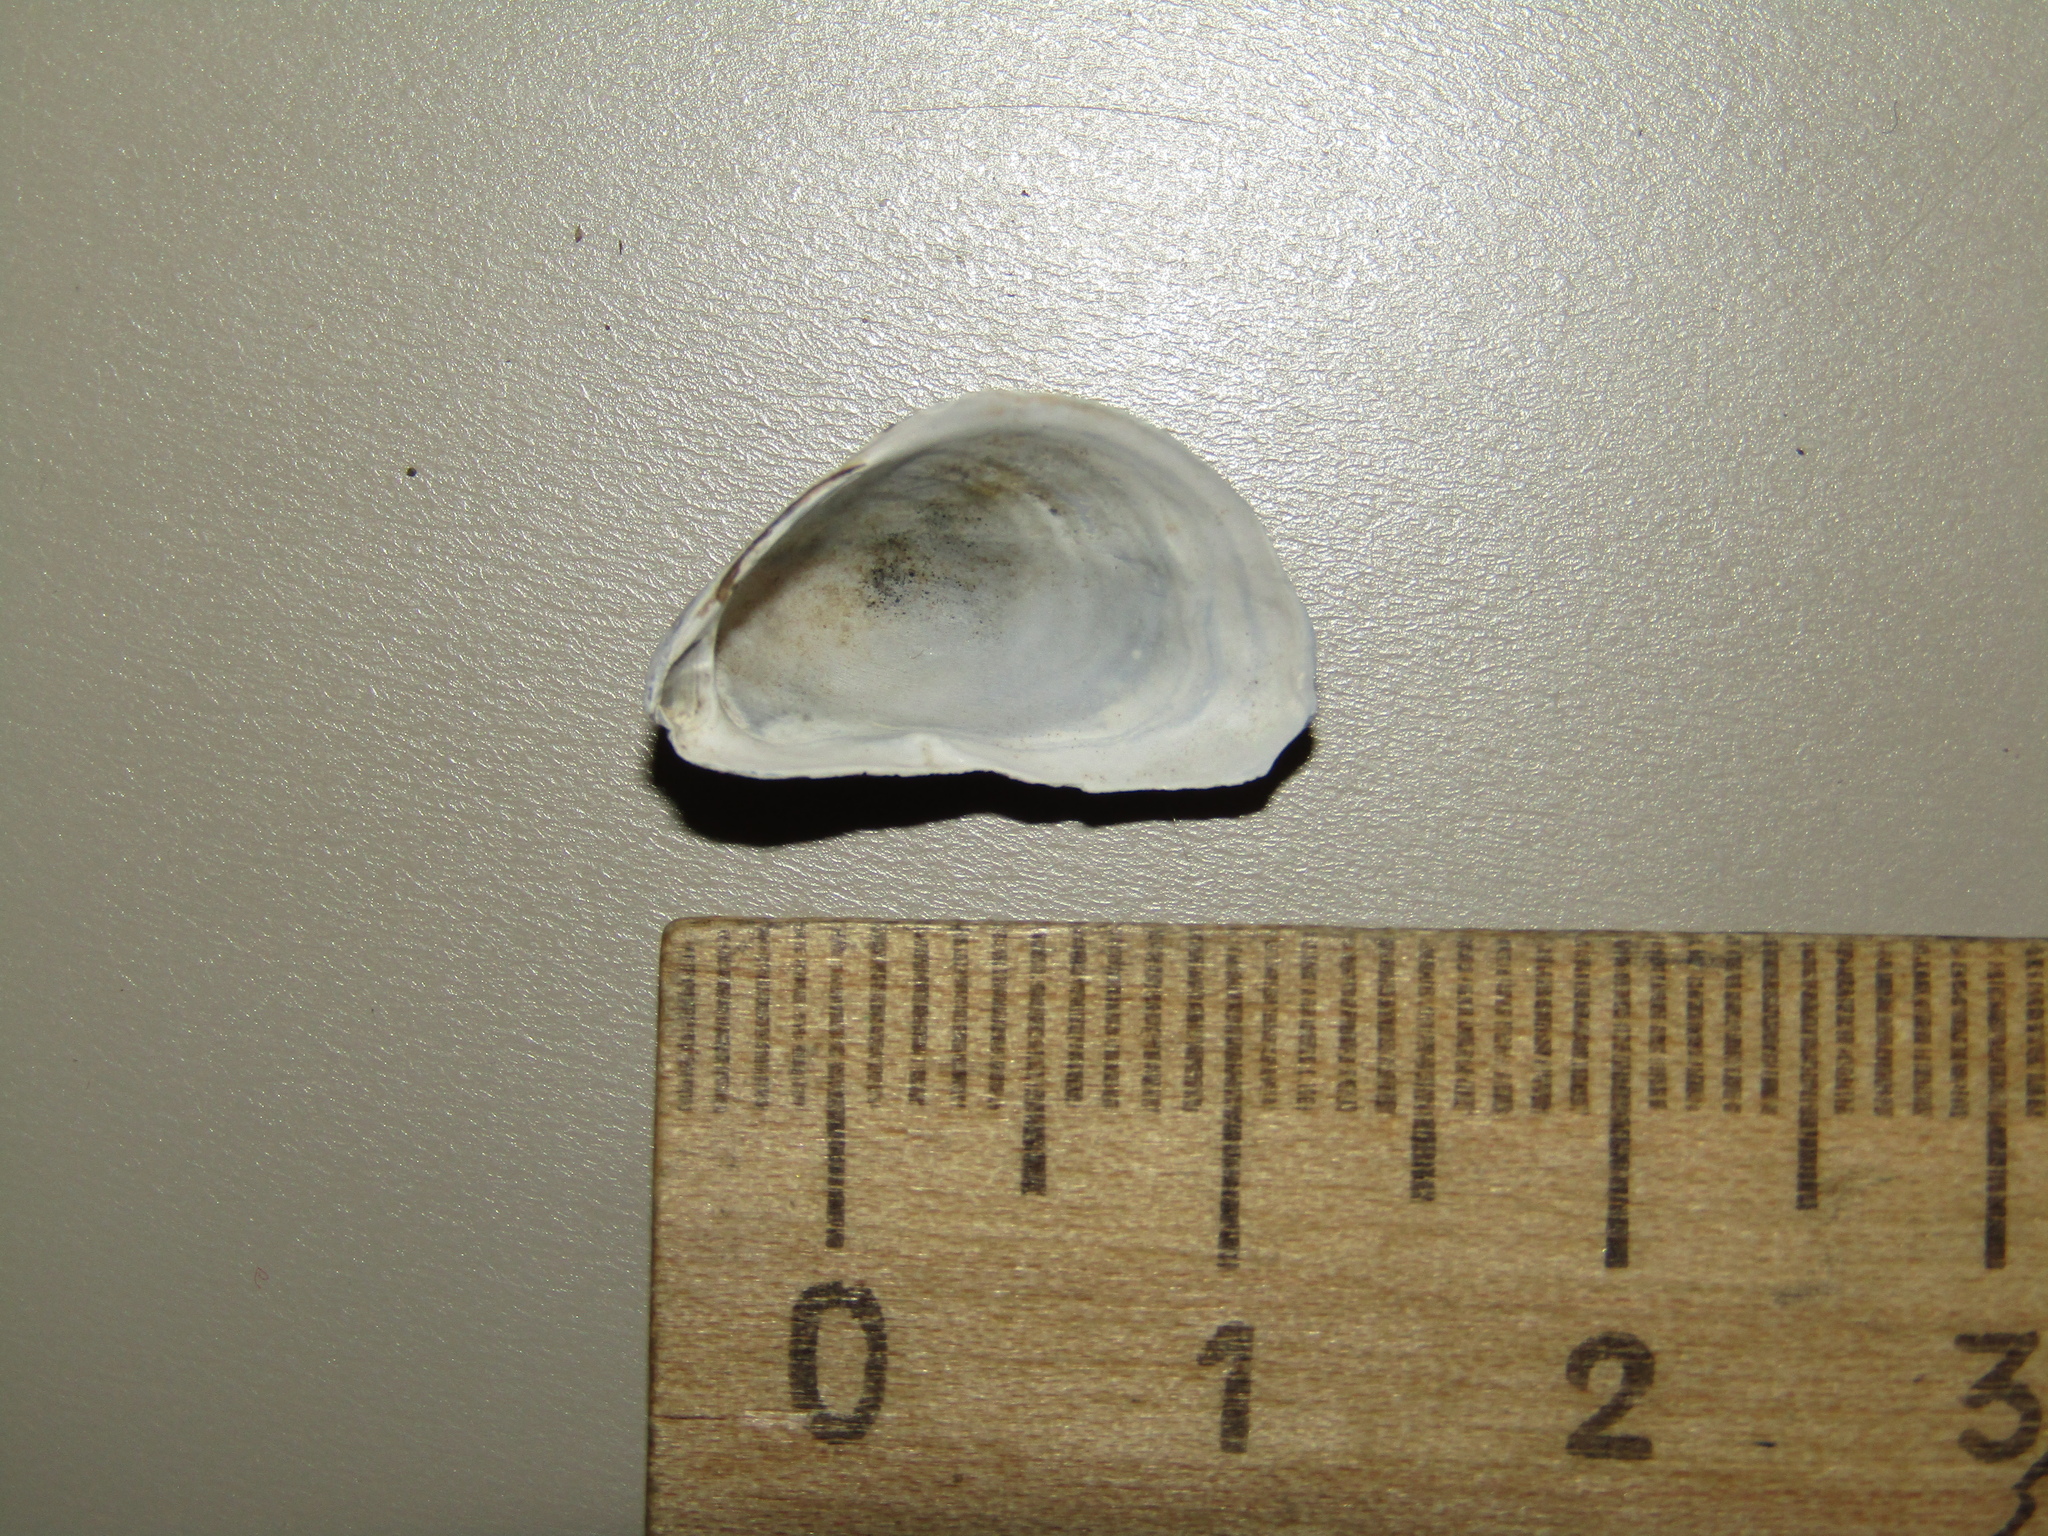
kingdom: Animalia
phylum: Mollusca
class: Bivalvia
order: Myida
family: Dreissenidae
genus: Dreissena
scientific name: Dreissena bugensis
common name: Quagga mussel
